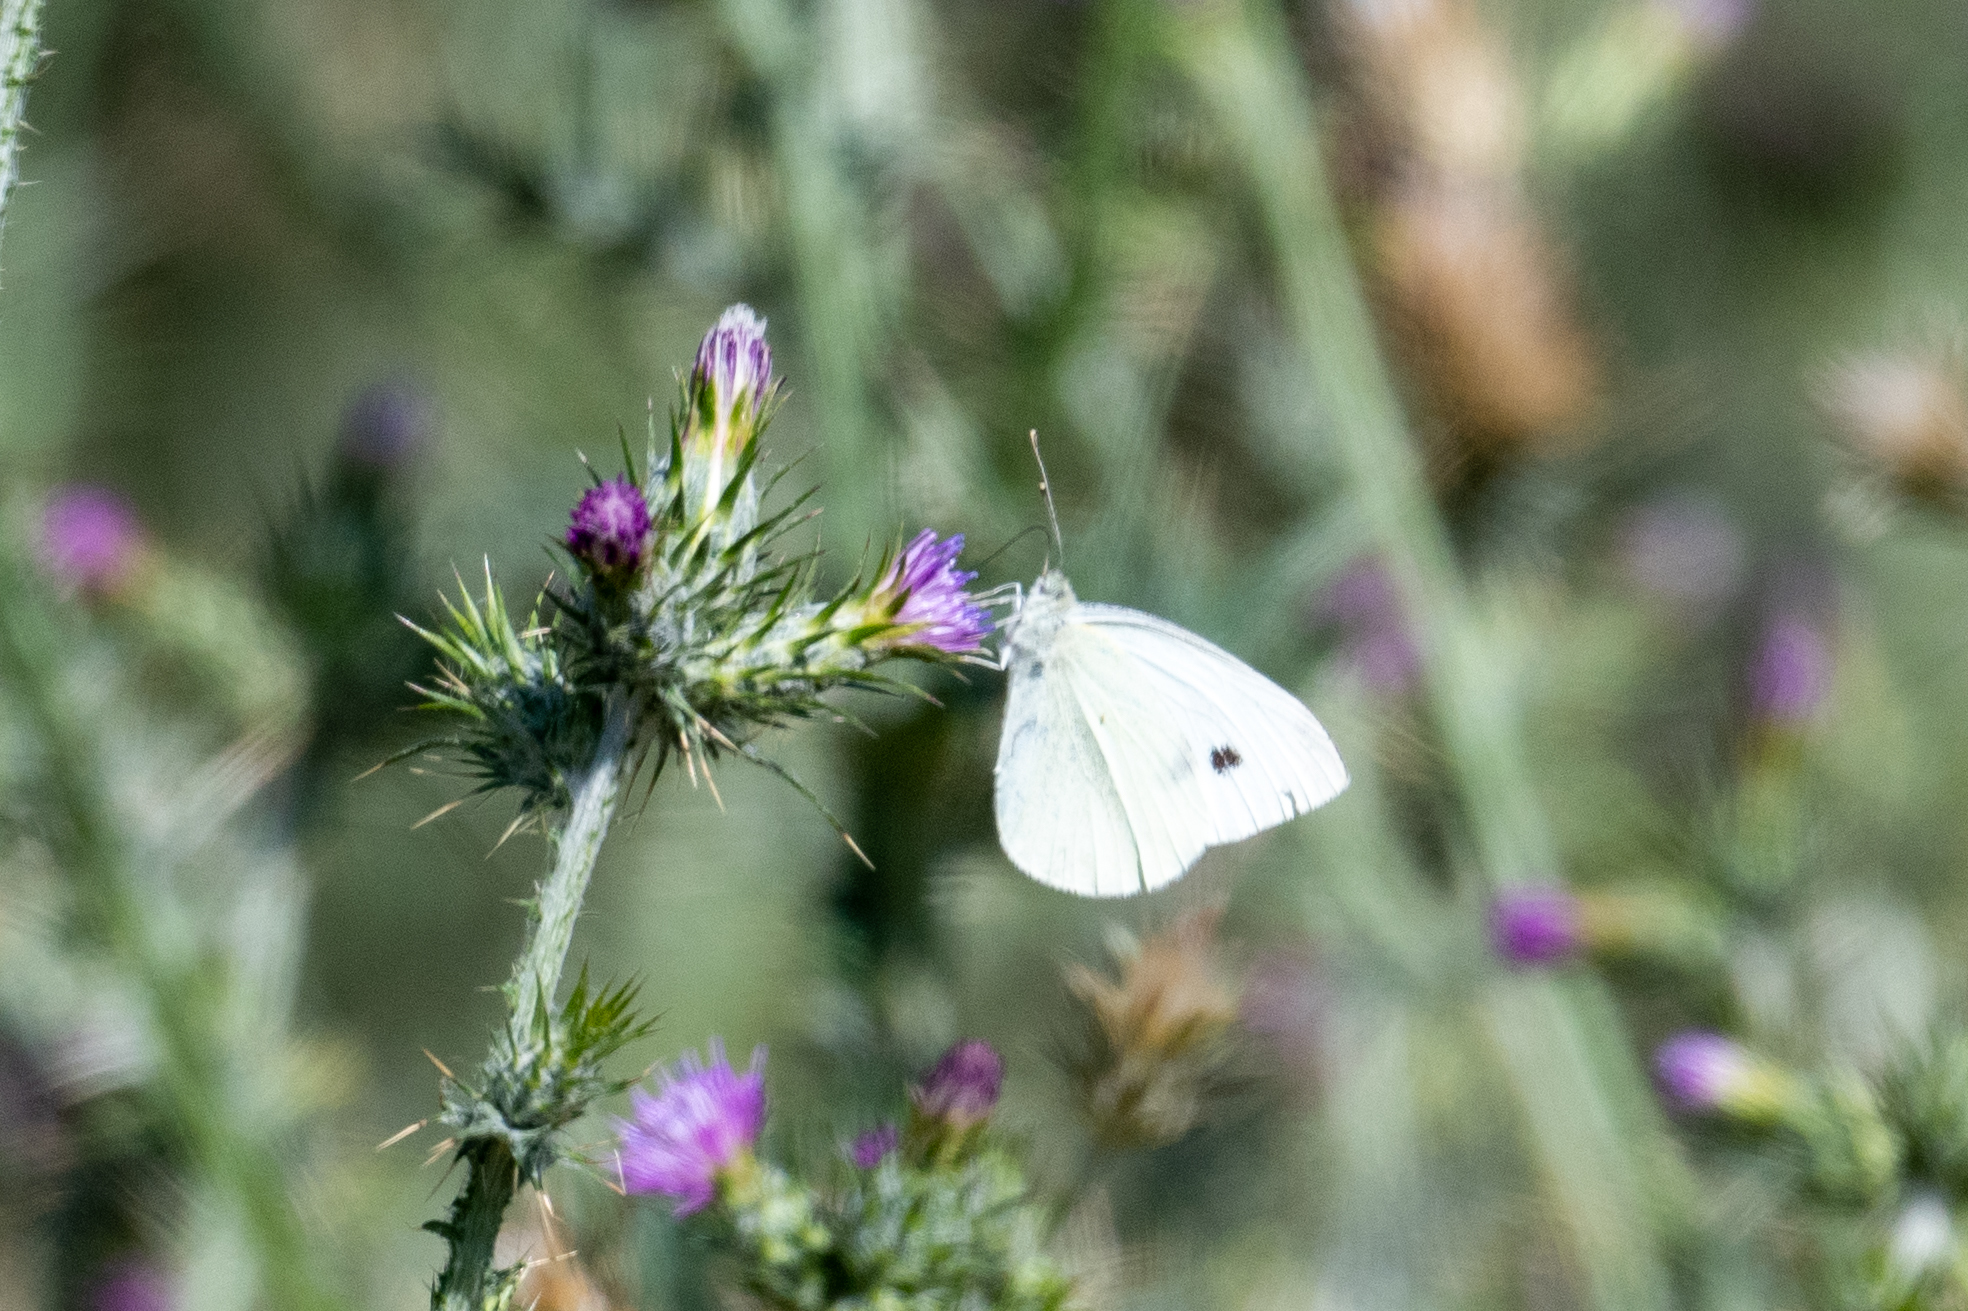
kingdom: Animalia
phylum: Arthropoda
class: Insecta
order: Lepidoptera
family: Pieridae
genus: Pieris
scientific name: Pieris rapae
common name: Small white
